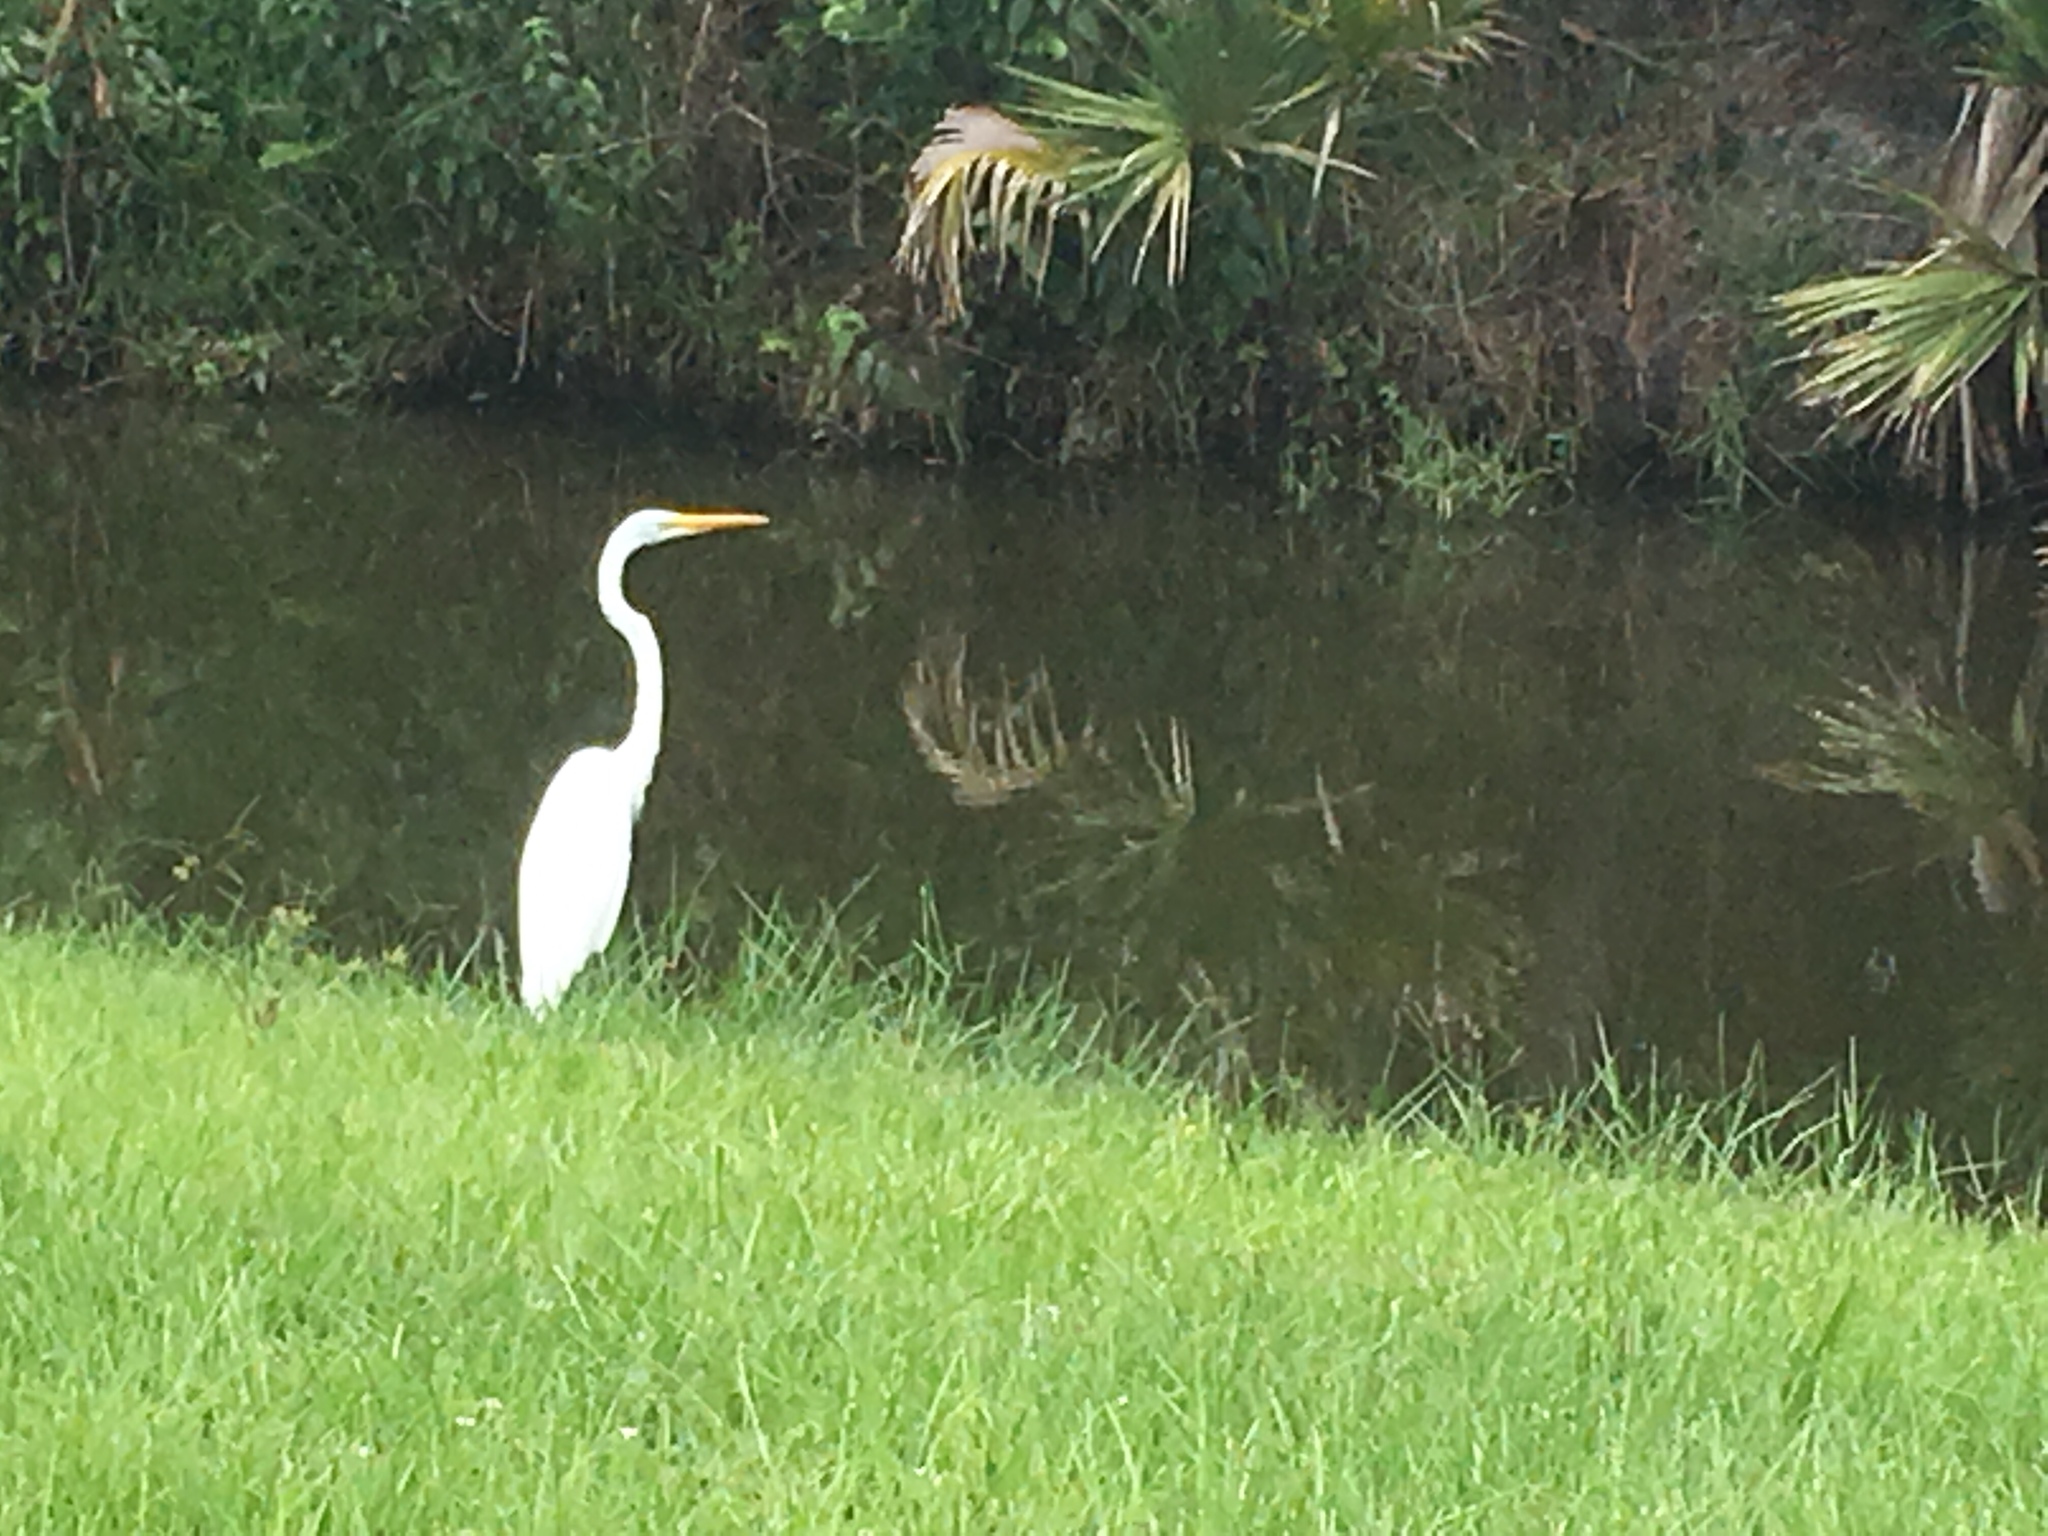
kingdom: Animalia
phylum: Chordata
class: Aves
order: Pelecaniformes
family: Ardeidae
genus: Ardea
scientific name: Ardea alba
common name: Great egret
